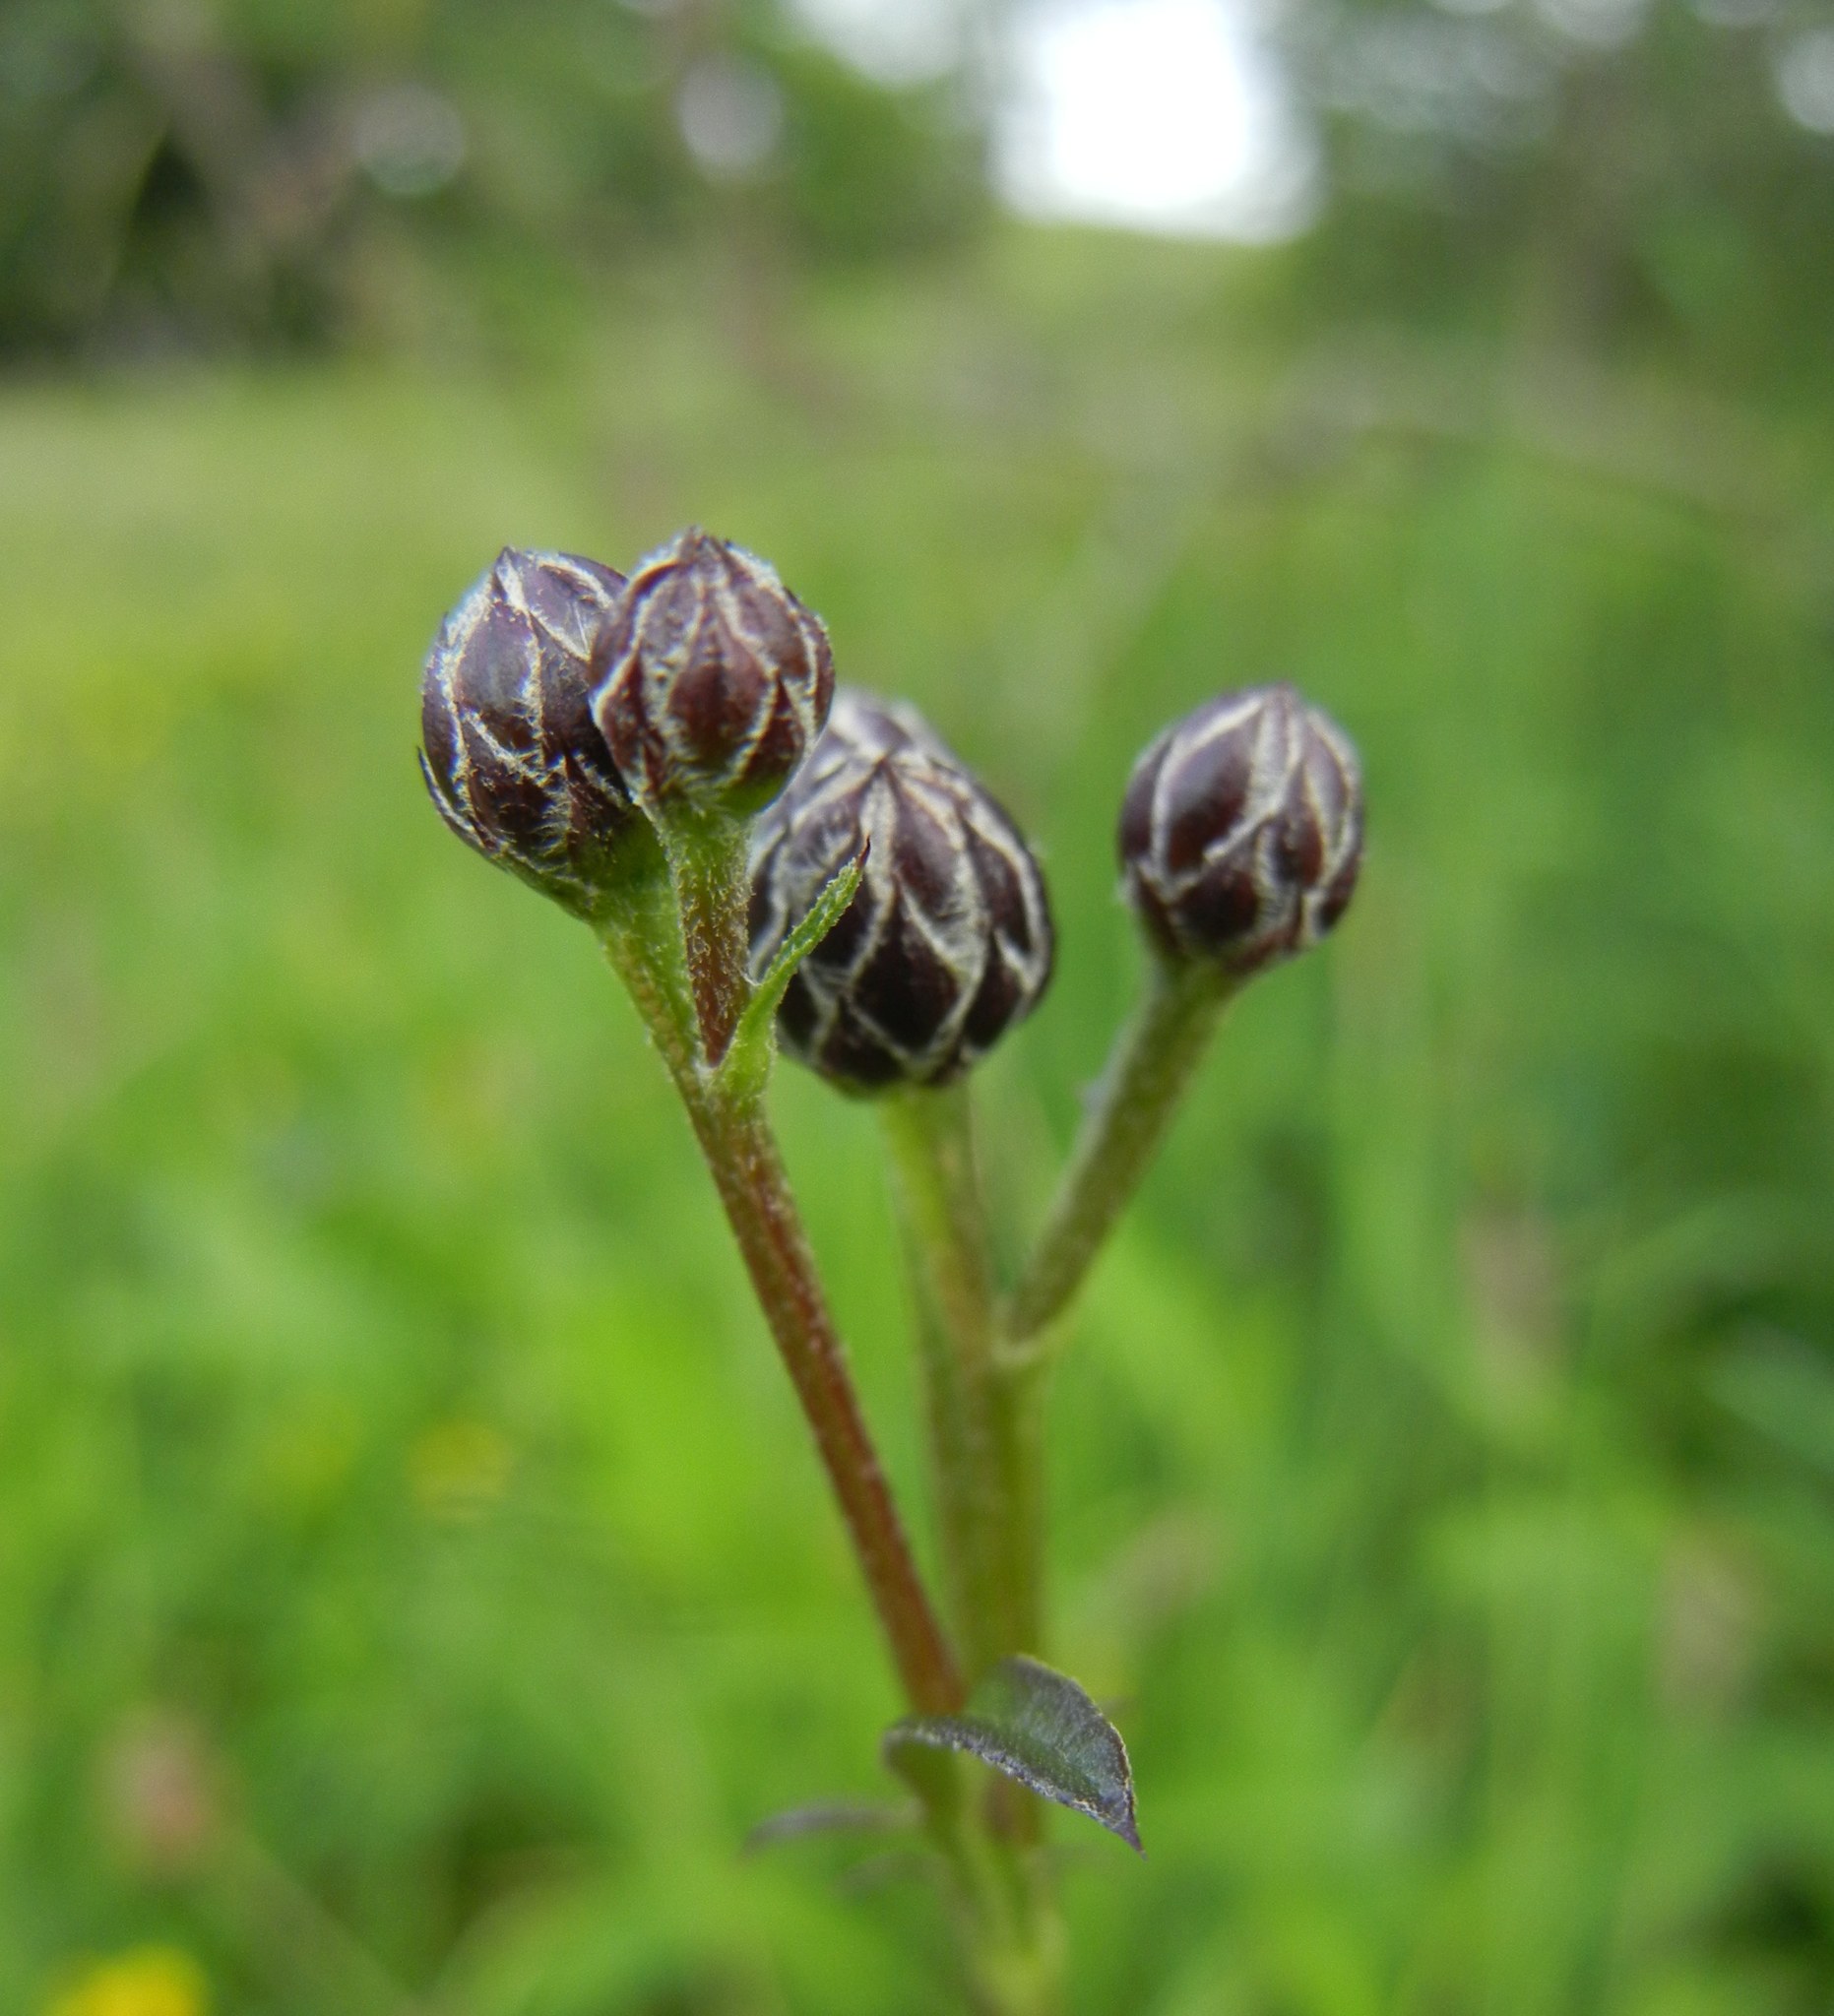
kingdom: Plantae
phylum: Tracheophyta
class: Magnoliopsida
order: Asterales
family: Asteraceae
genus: Serratula
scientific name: Serratula tinctoria
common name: Saw-wort
